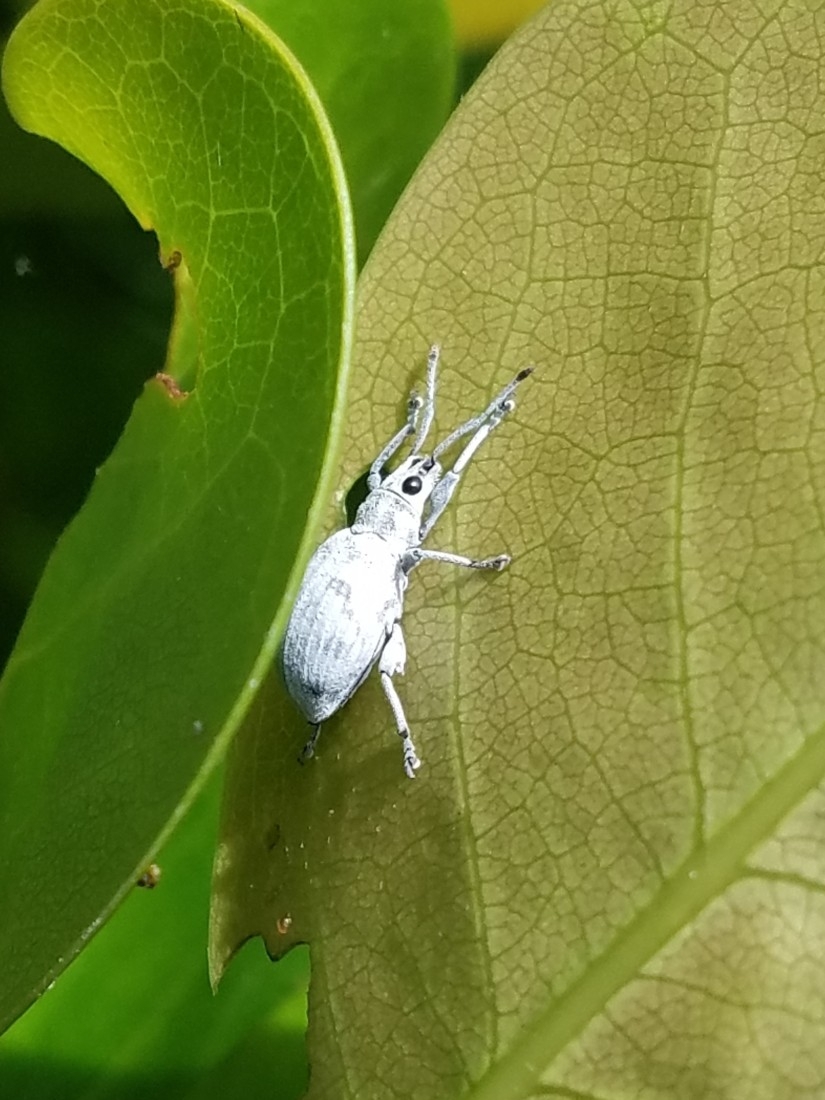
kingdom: Animalia
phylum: Arthropoda
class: Insecta
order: Coleoptera
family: Curculionidae
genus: Myllocerus
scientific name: Myllocerus undecimpustulatus
